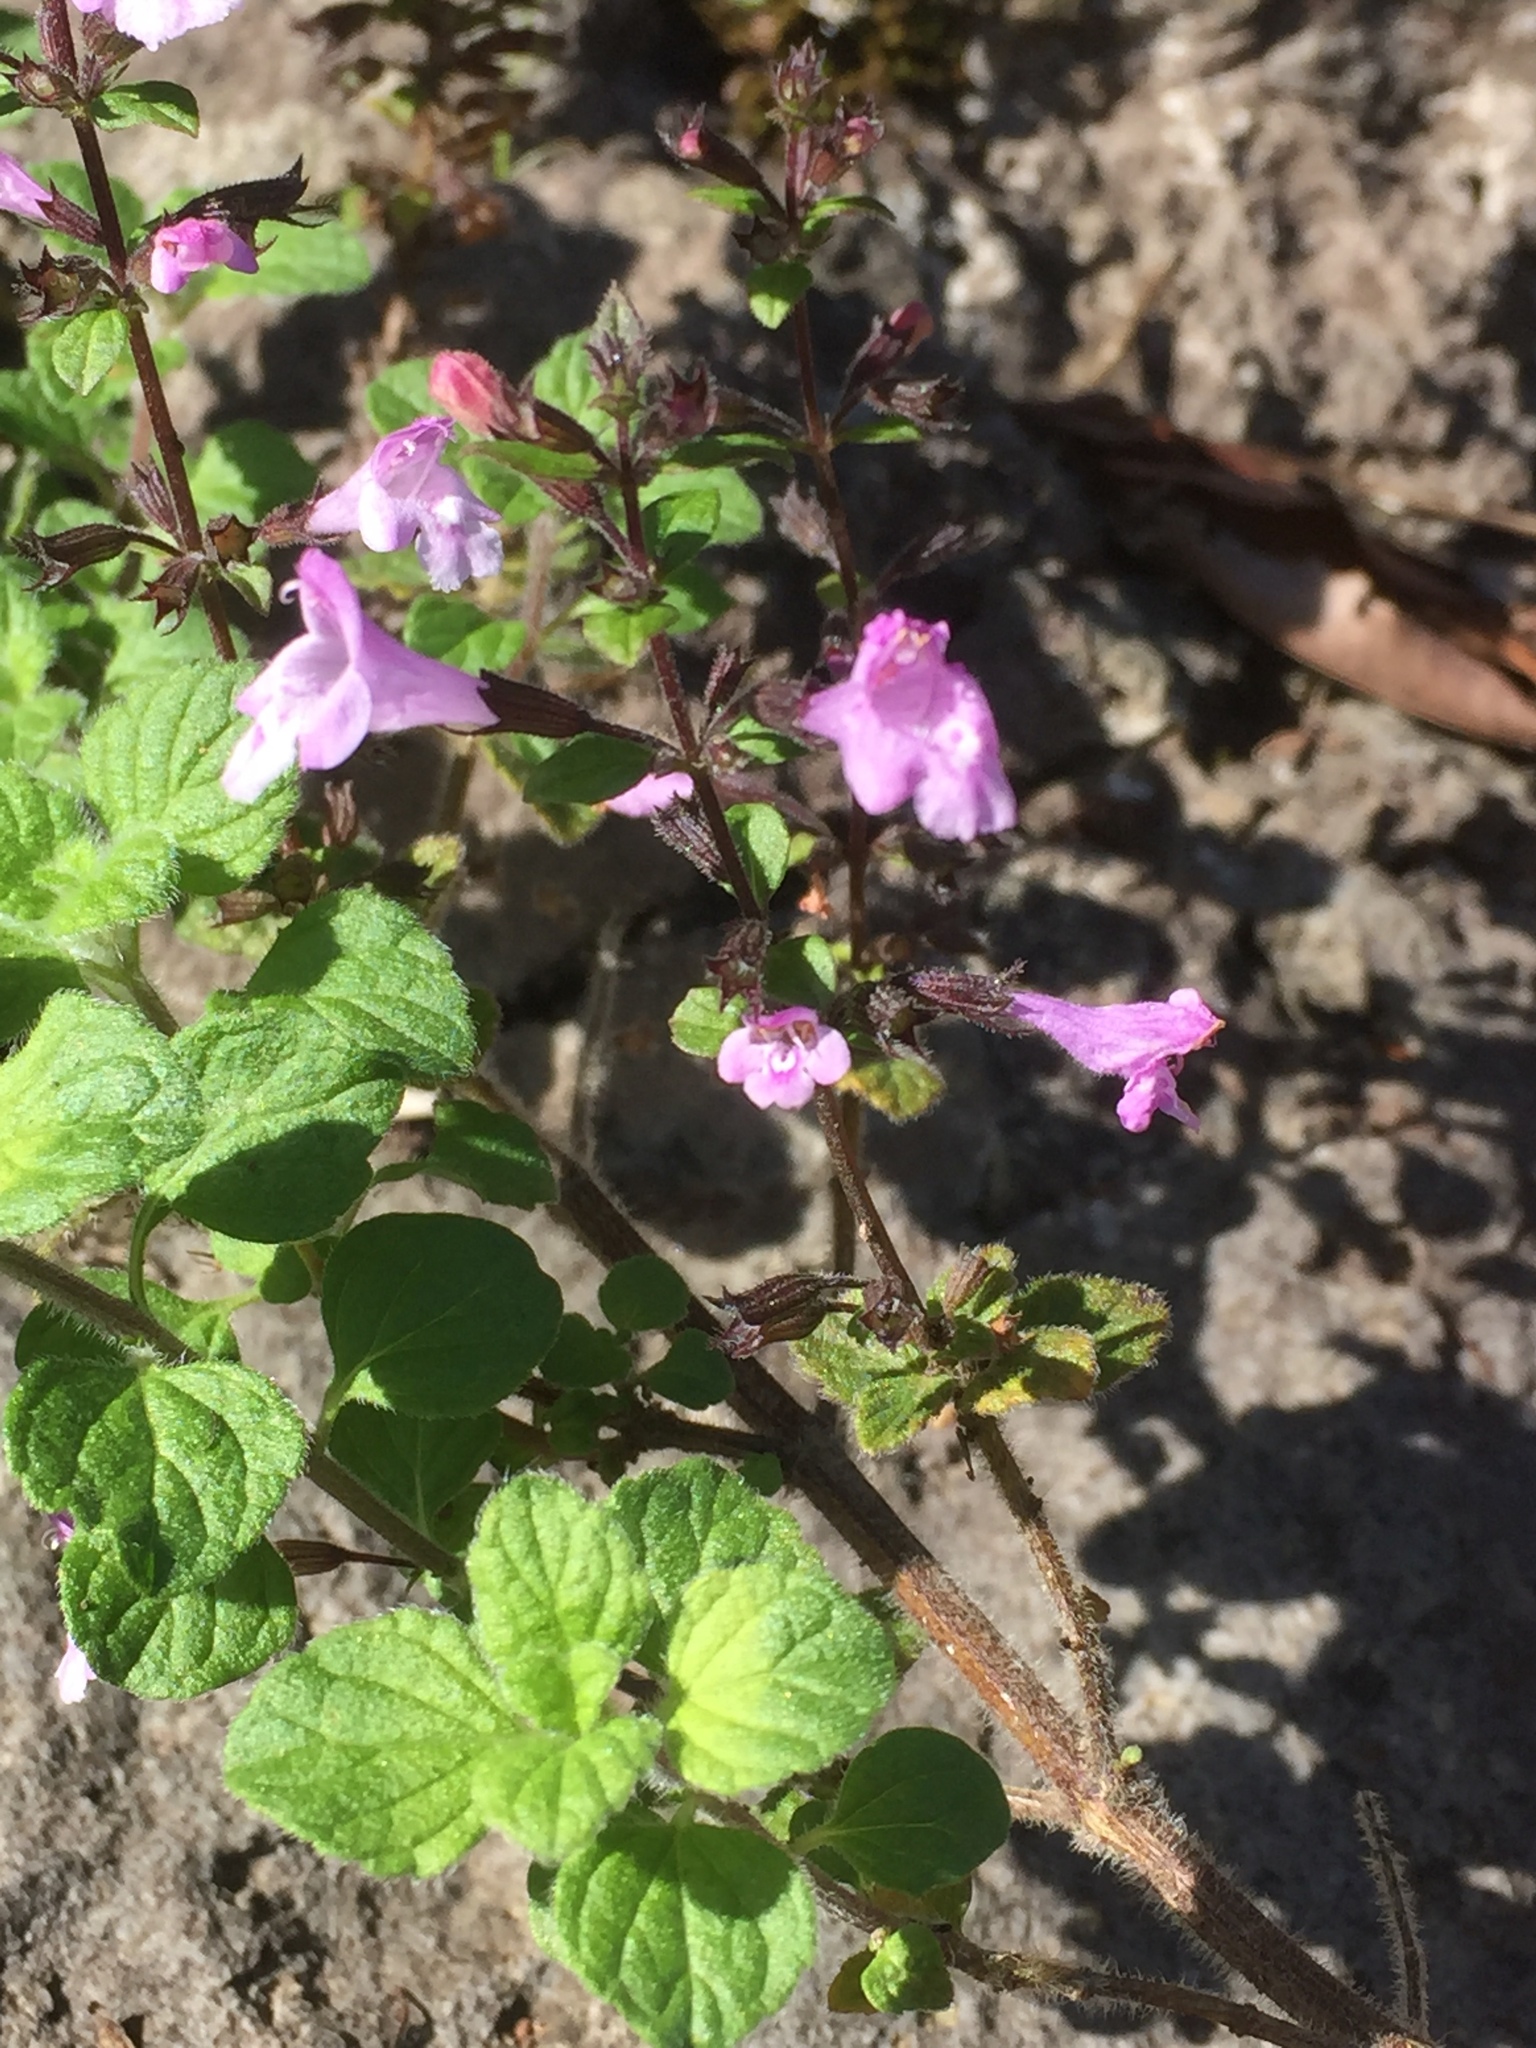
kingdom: Plantae
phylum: Tracheophyta
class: Magnoliopsida
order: Lamiales
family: Lamiaceae
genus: Clinopodium
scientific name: Clinopodium menthifolium
